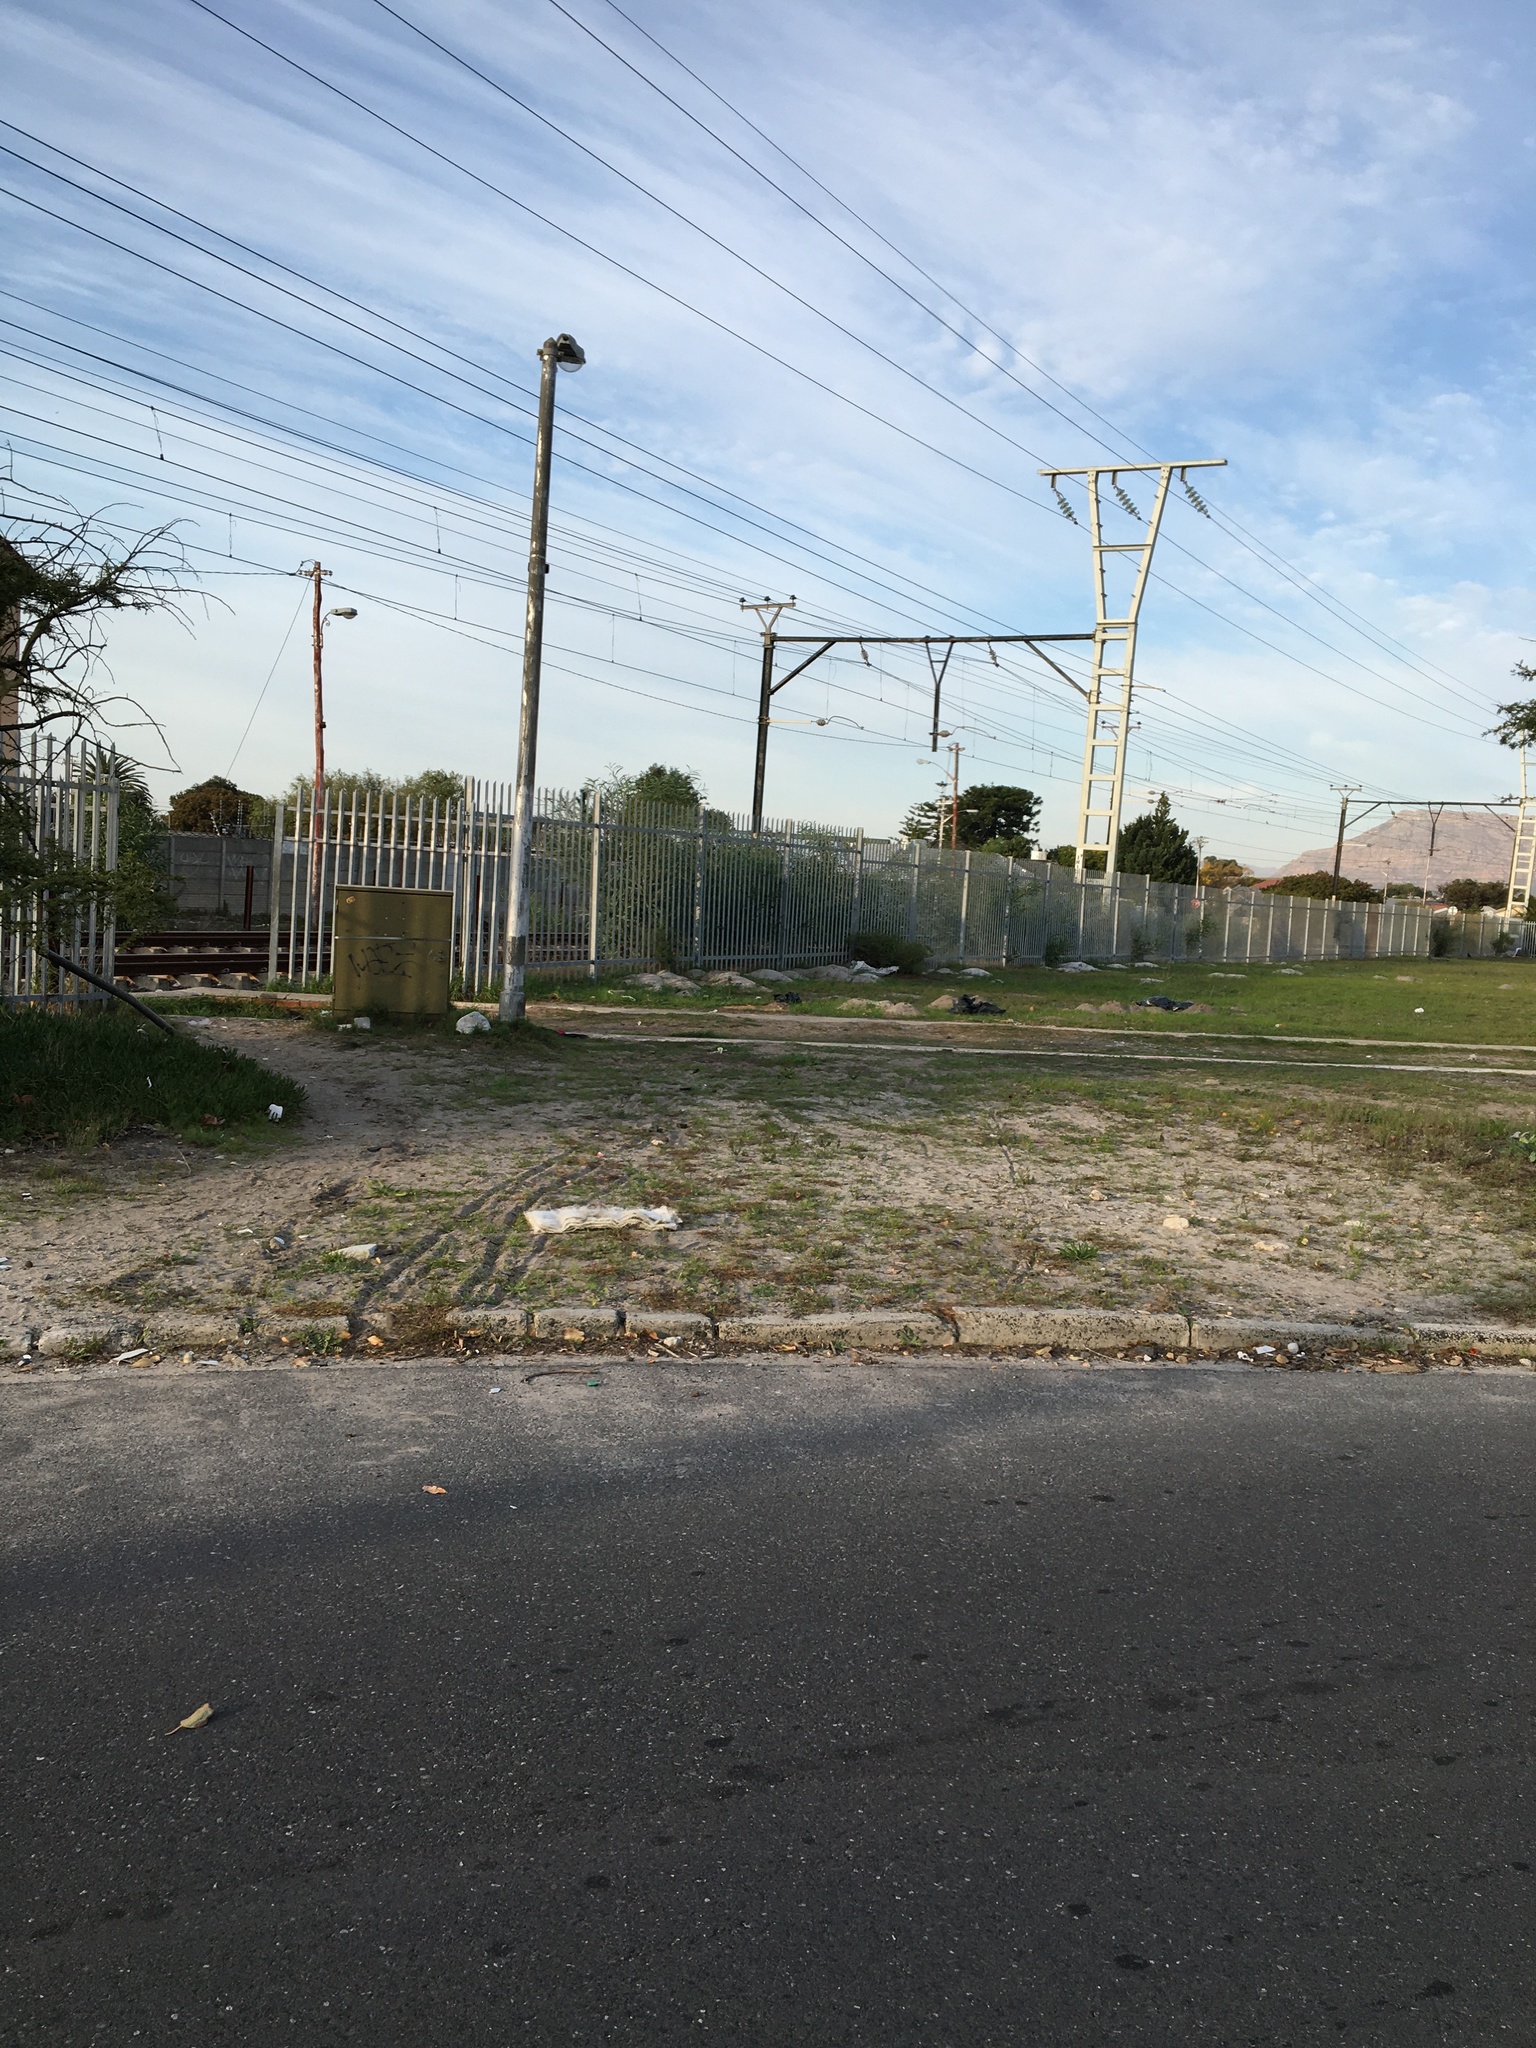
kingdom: Plantae
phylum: Tracheophyta
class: Magnoliopsida
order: Fabales
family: Fabaceae
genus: Acacia
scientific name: Acacia saligna
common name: Orange wattle
